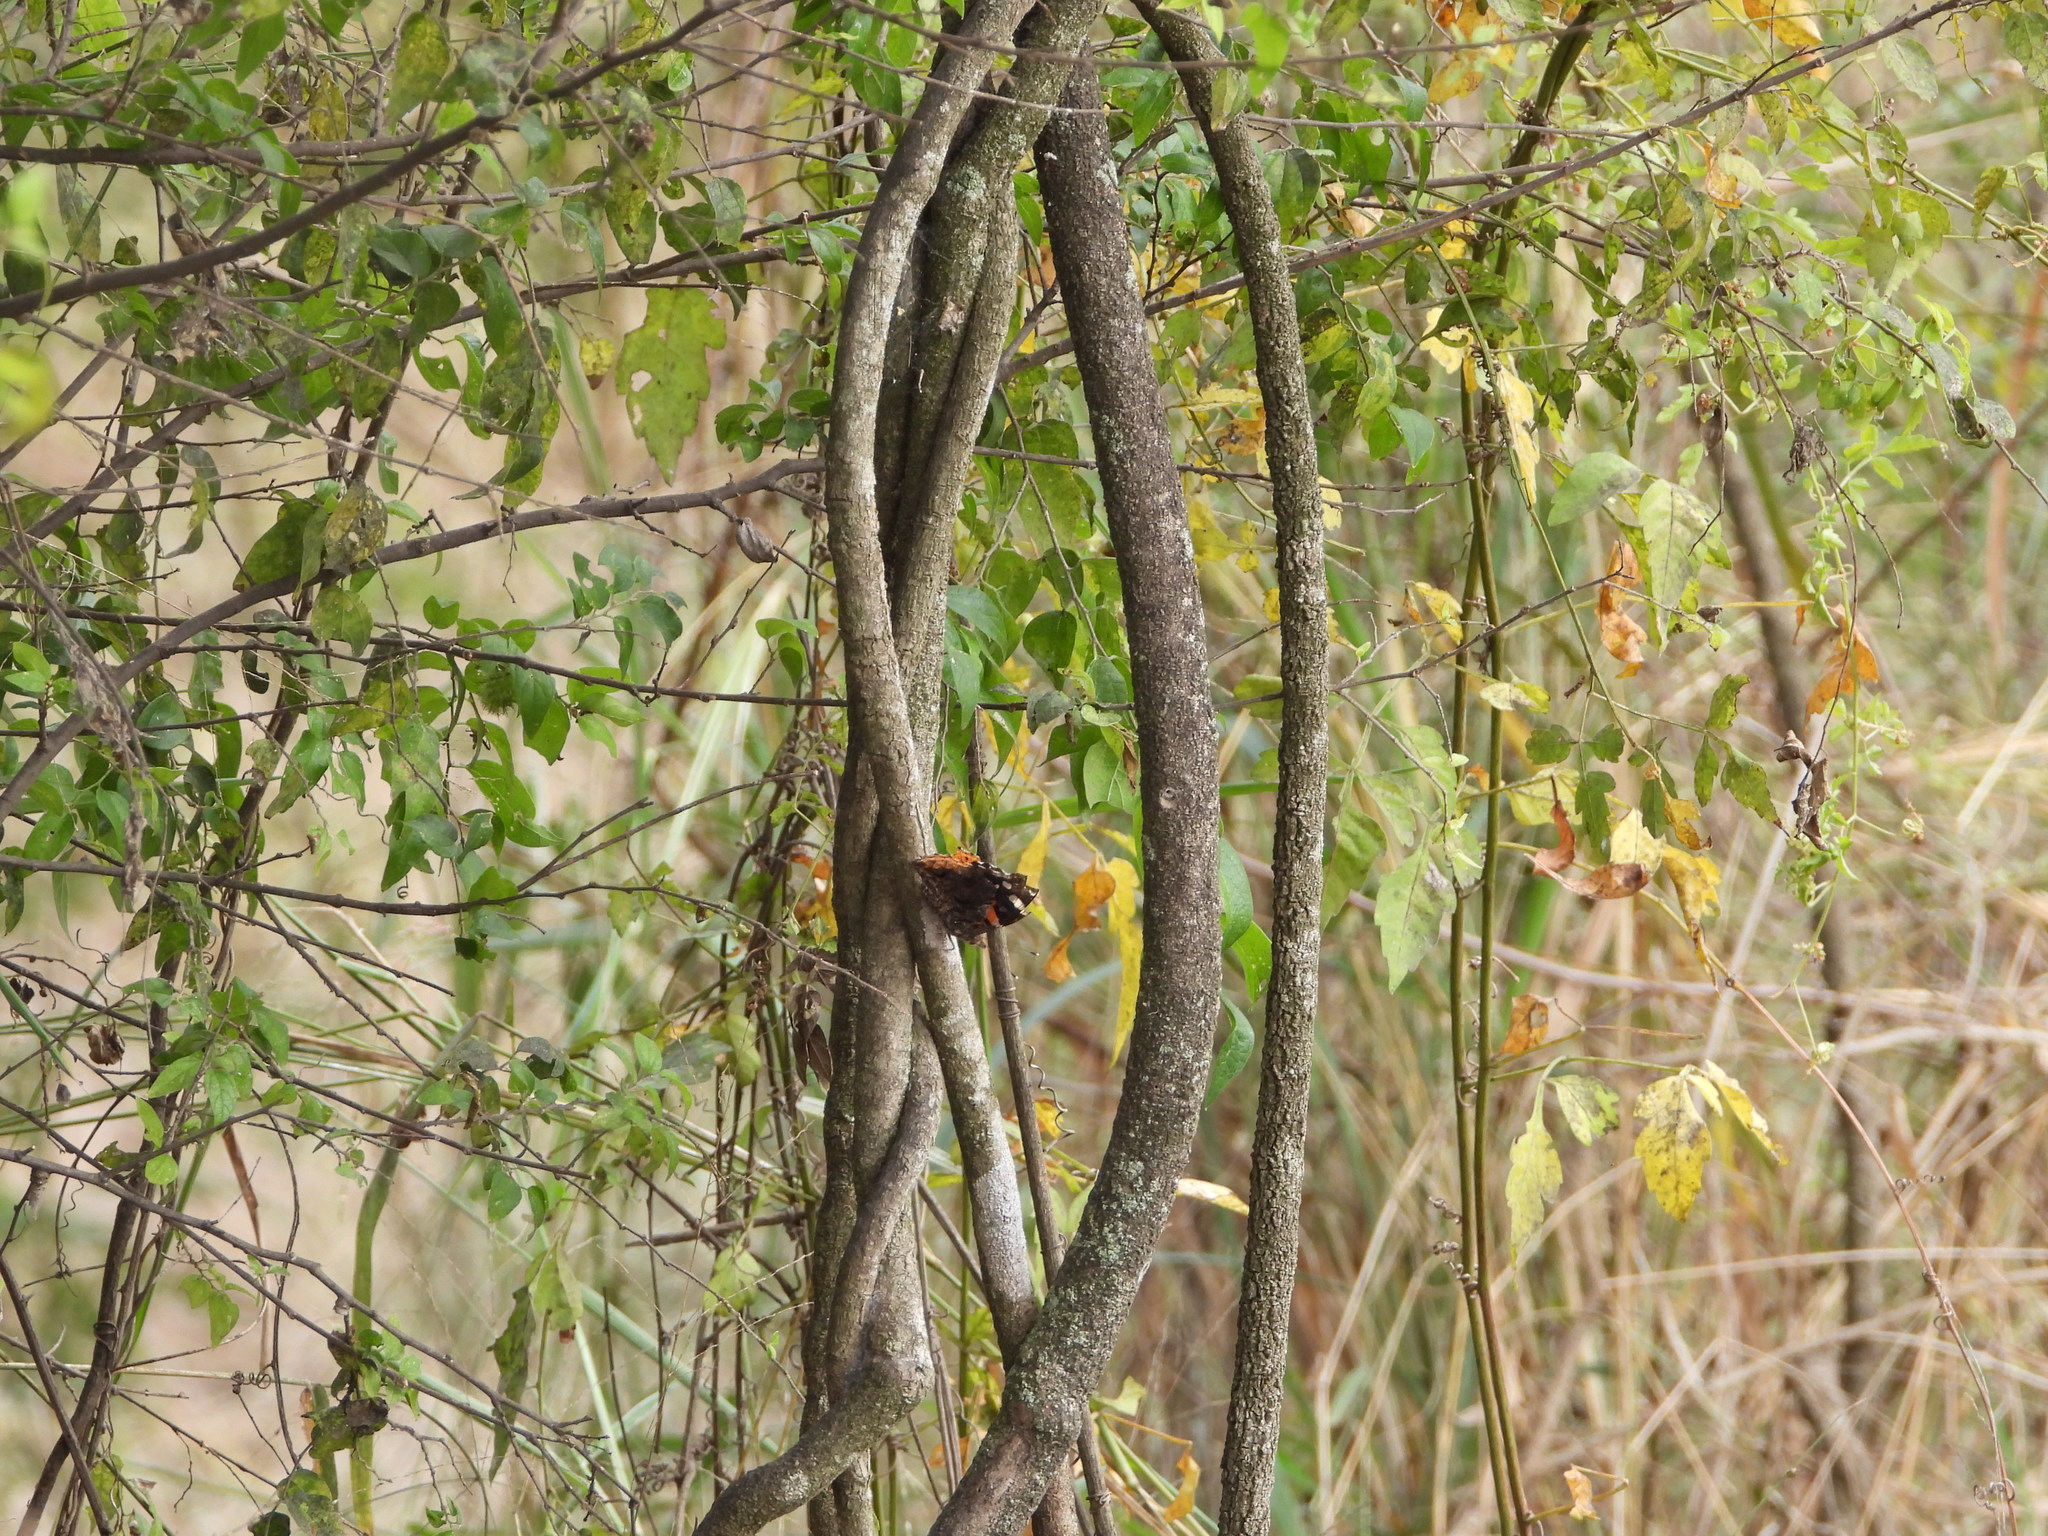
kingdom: Animalia
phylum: Arthropoda
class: Insecta
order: Lepidoptera
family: Nymphalidae
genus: Vanessa
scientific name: Vanessa atalanta
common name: Red admiral
